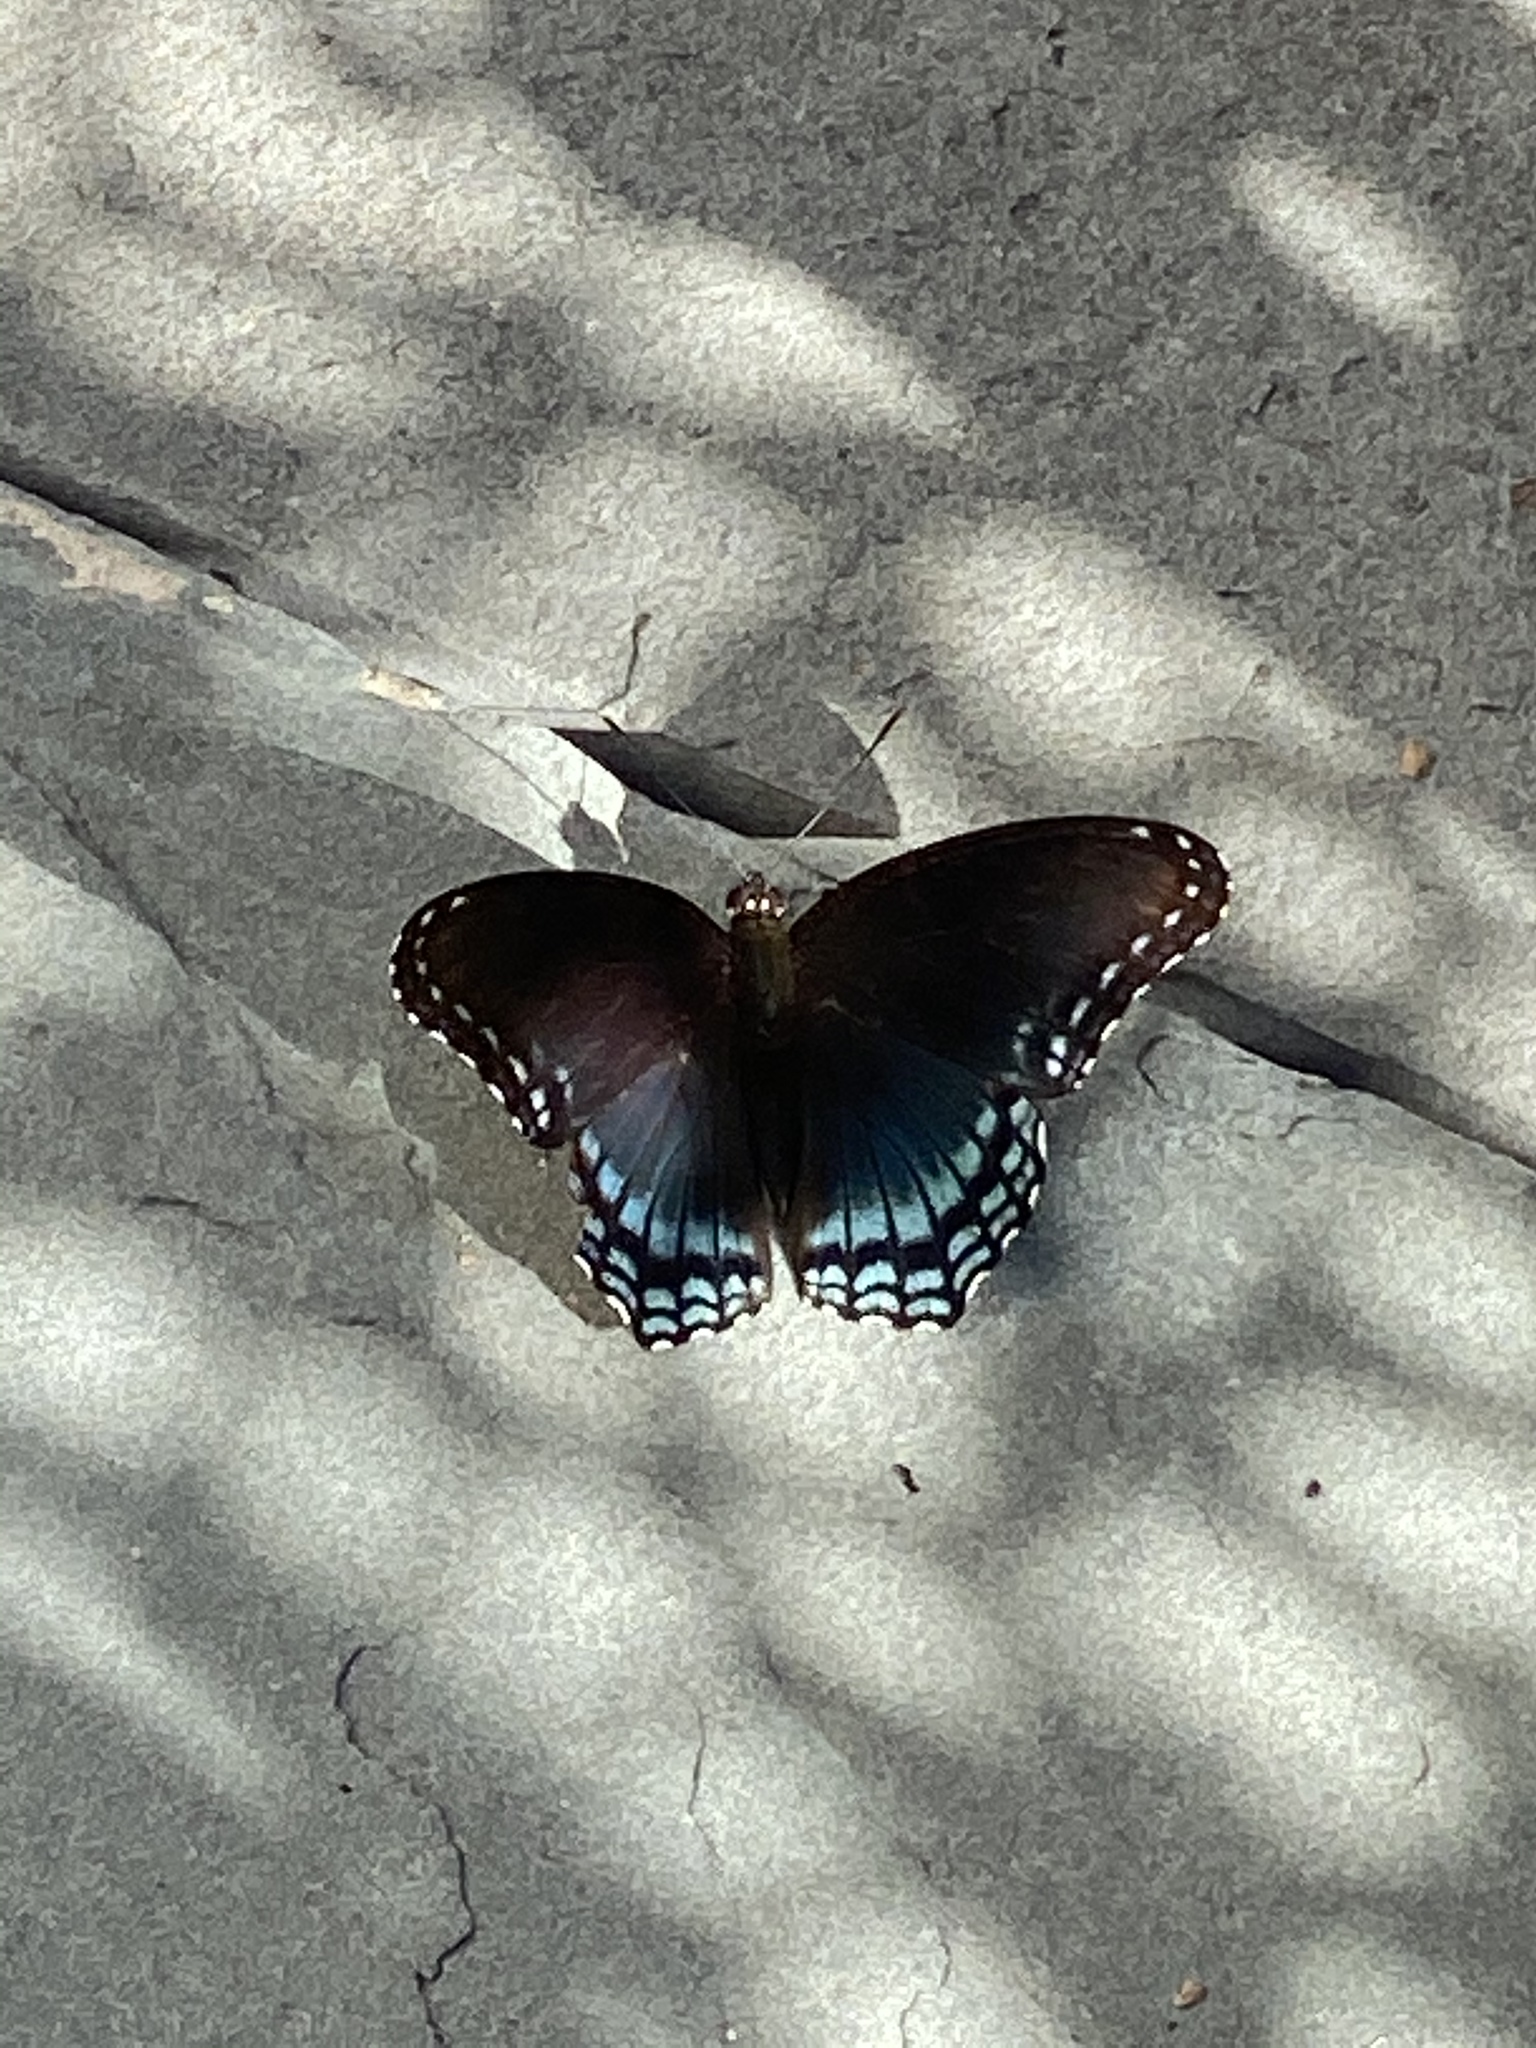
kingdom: Animalia
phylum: Arthropoda
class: Insecta
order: Lepidoptera
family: Nymphalidae
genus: Limenitis
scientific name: Limenitis astyanax
